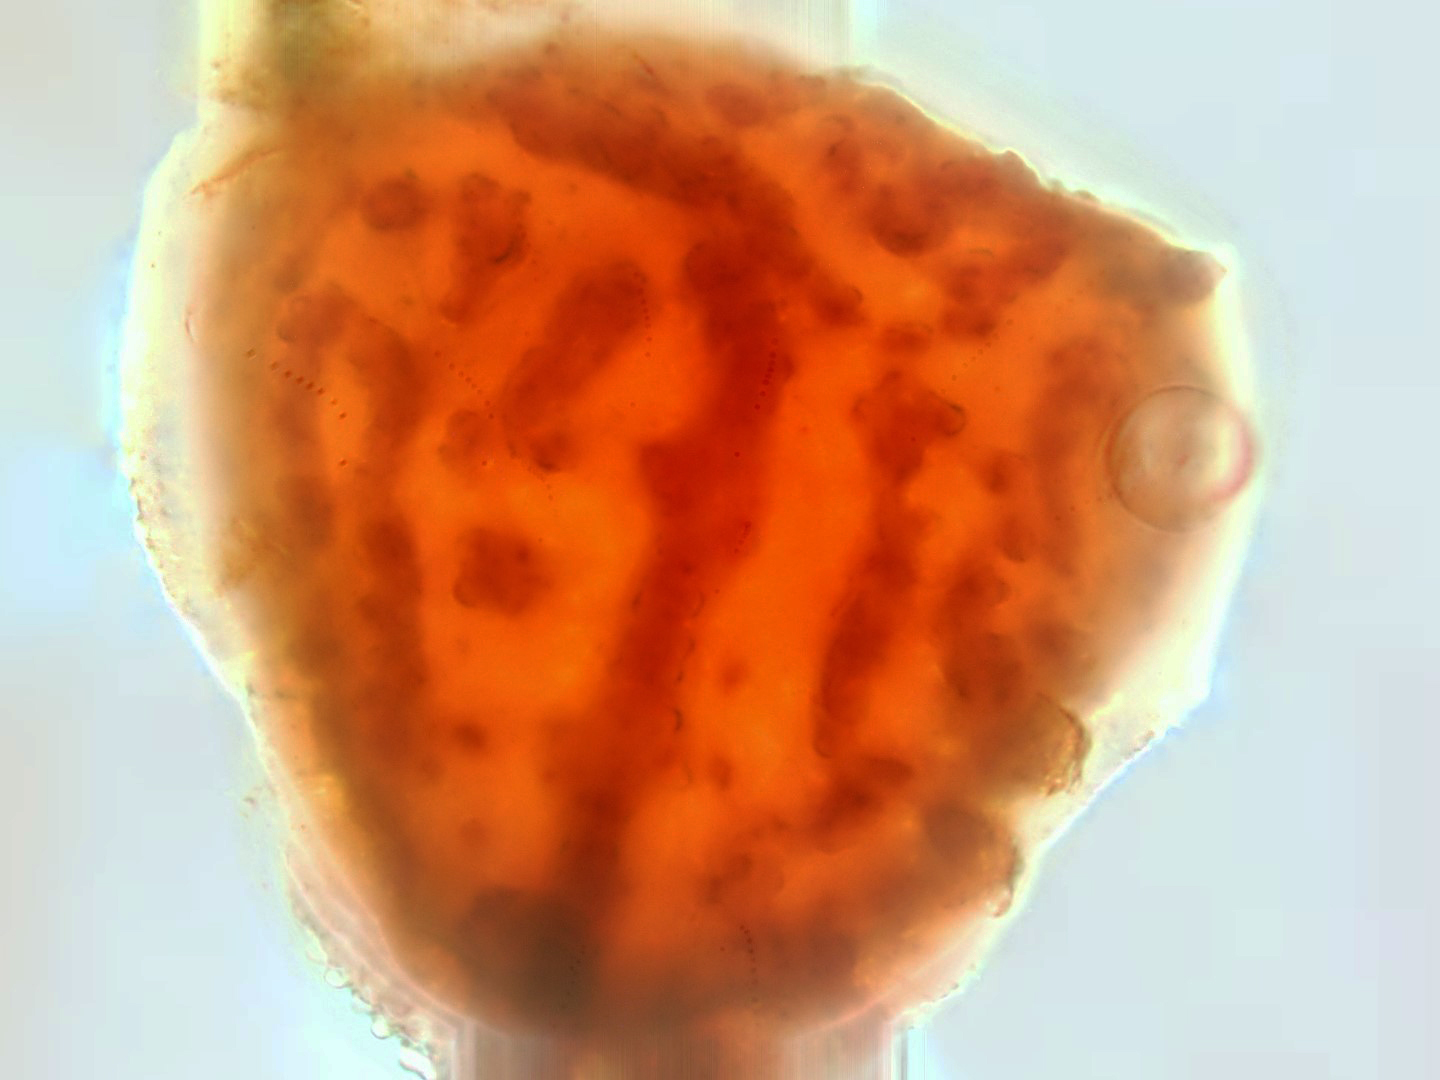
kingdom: Plantae
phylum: Marchantiophyta
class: Marchantiopsida
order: Marchantiales
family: Ricciaceae
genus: Riccia
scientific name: Riccia cavernosa
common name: Cavernous crystalwort
